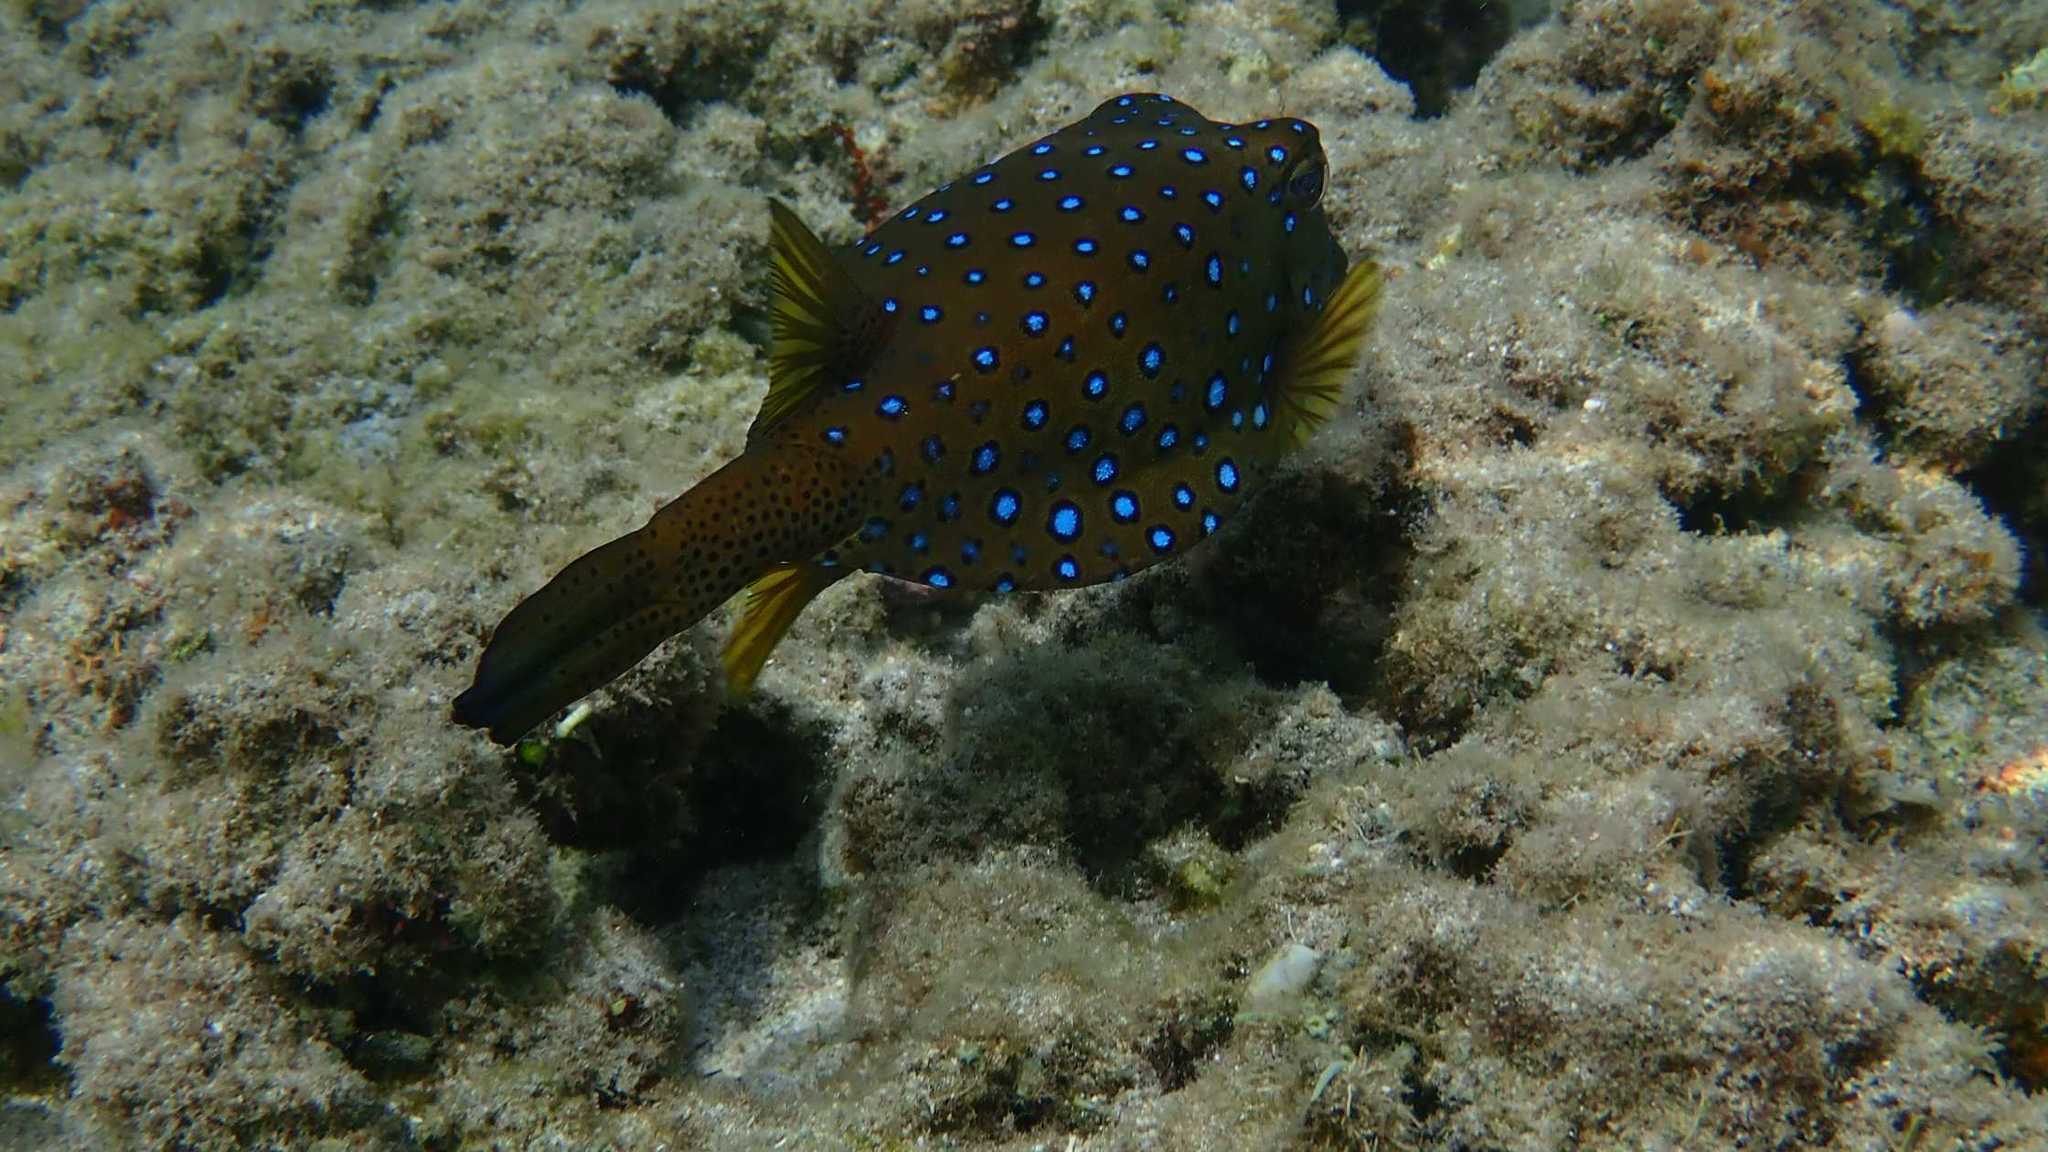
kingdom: Animalia
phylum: Chordata
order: Tetraodontiformes
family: Ostraciidae
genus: Ostracion
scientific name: Ostracion cubicus
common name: Cube trunkfish
